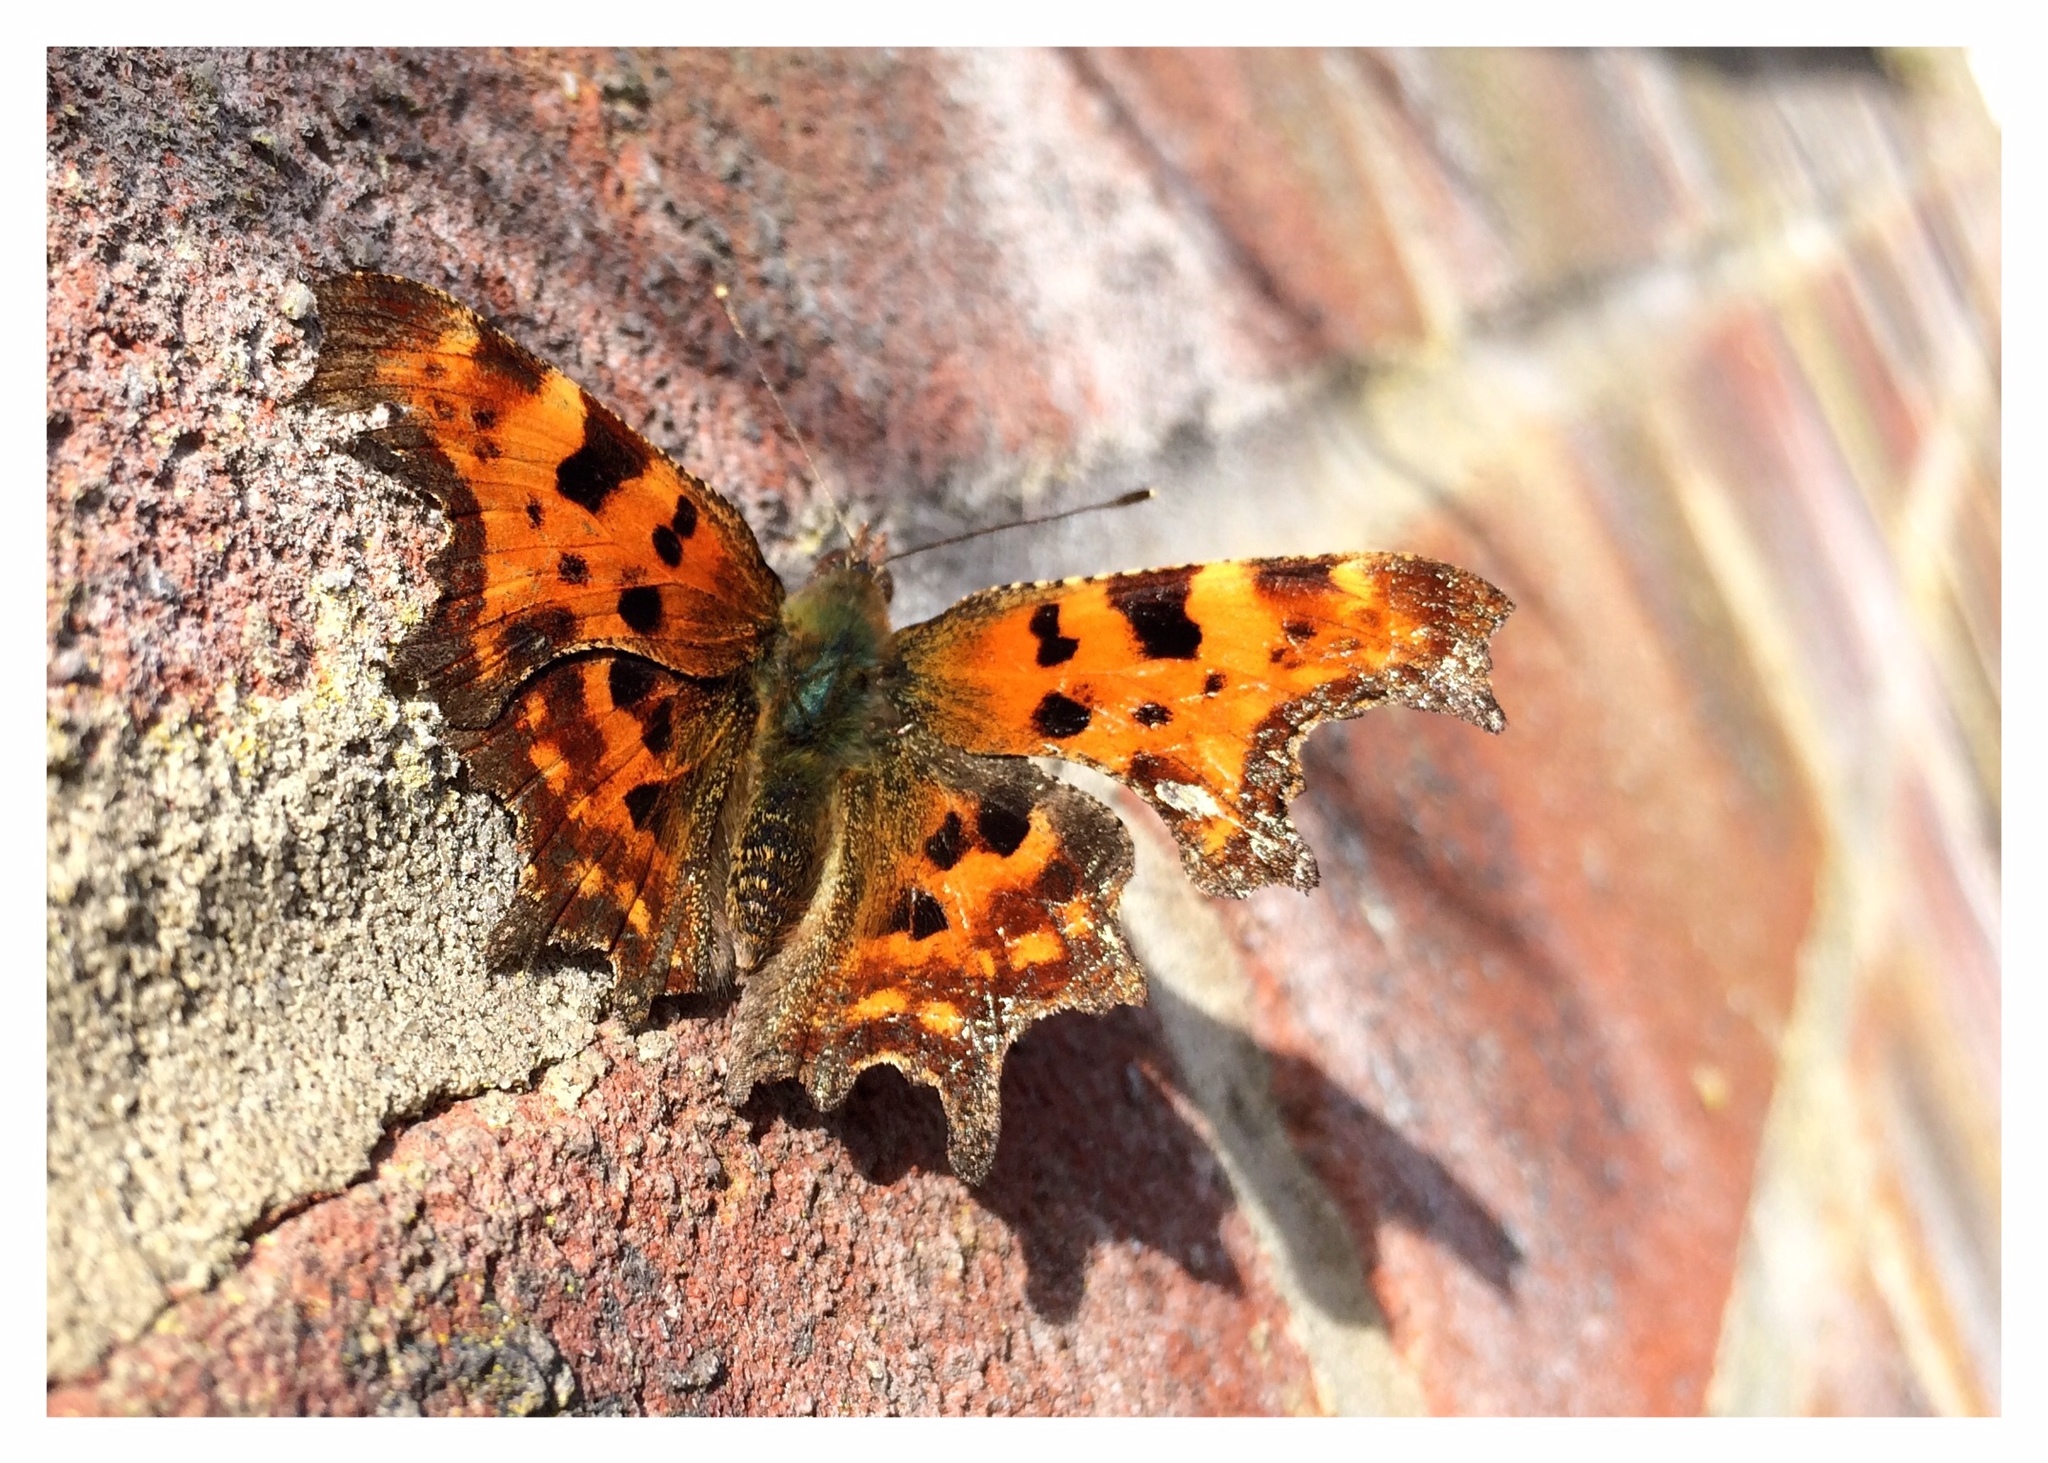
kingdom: Animalia
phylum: Arthropoda
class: Insecta
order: Lepidoptera
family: Nymphalidae
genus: Polygonia
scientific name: Polygonia c-album
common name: Comma
